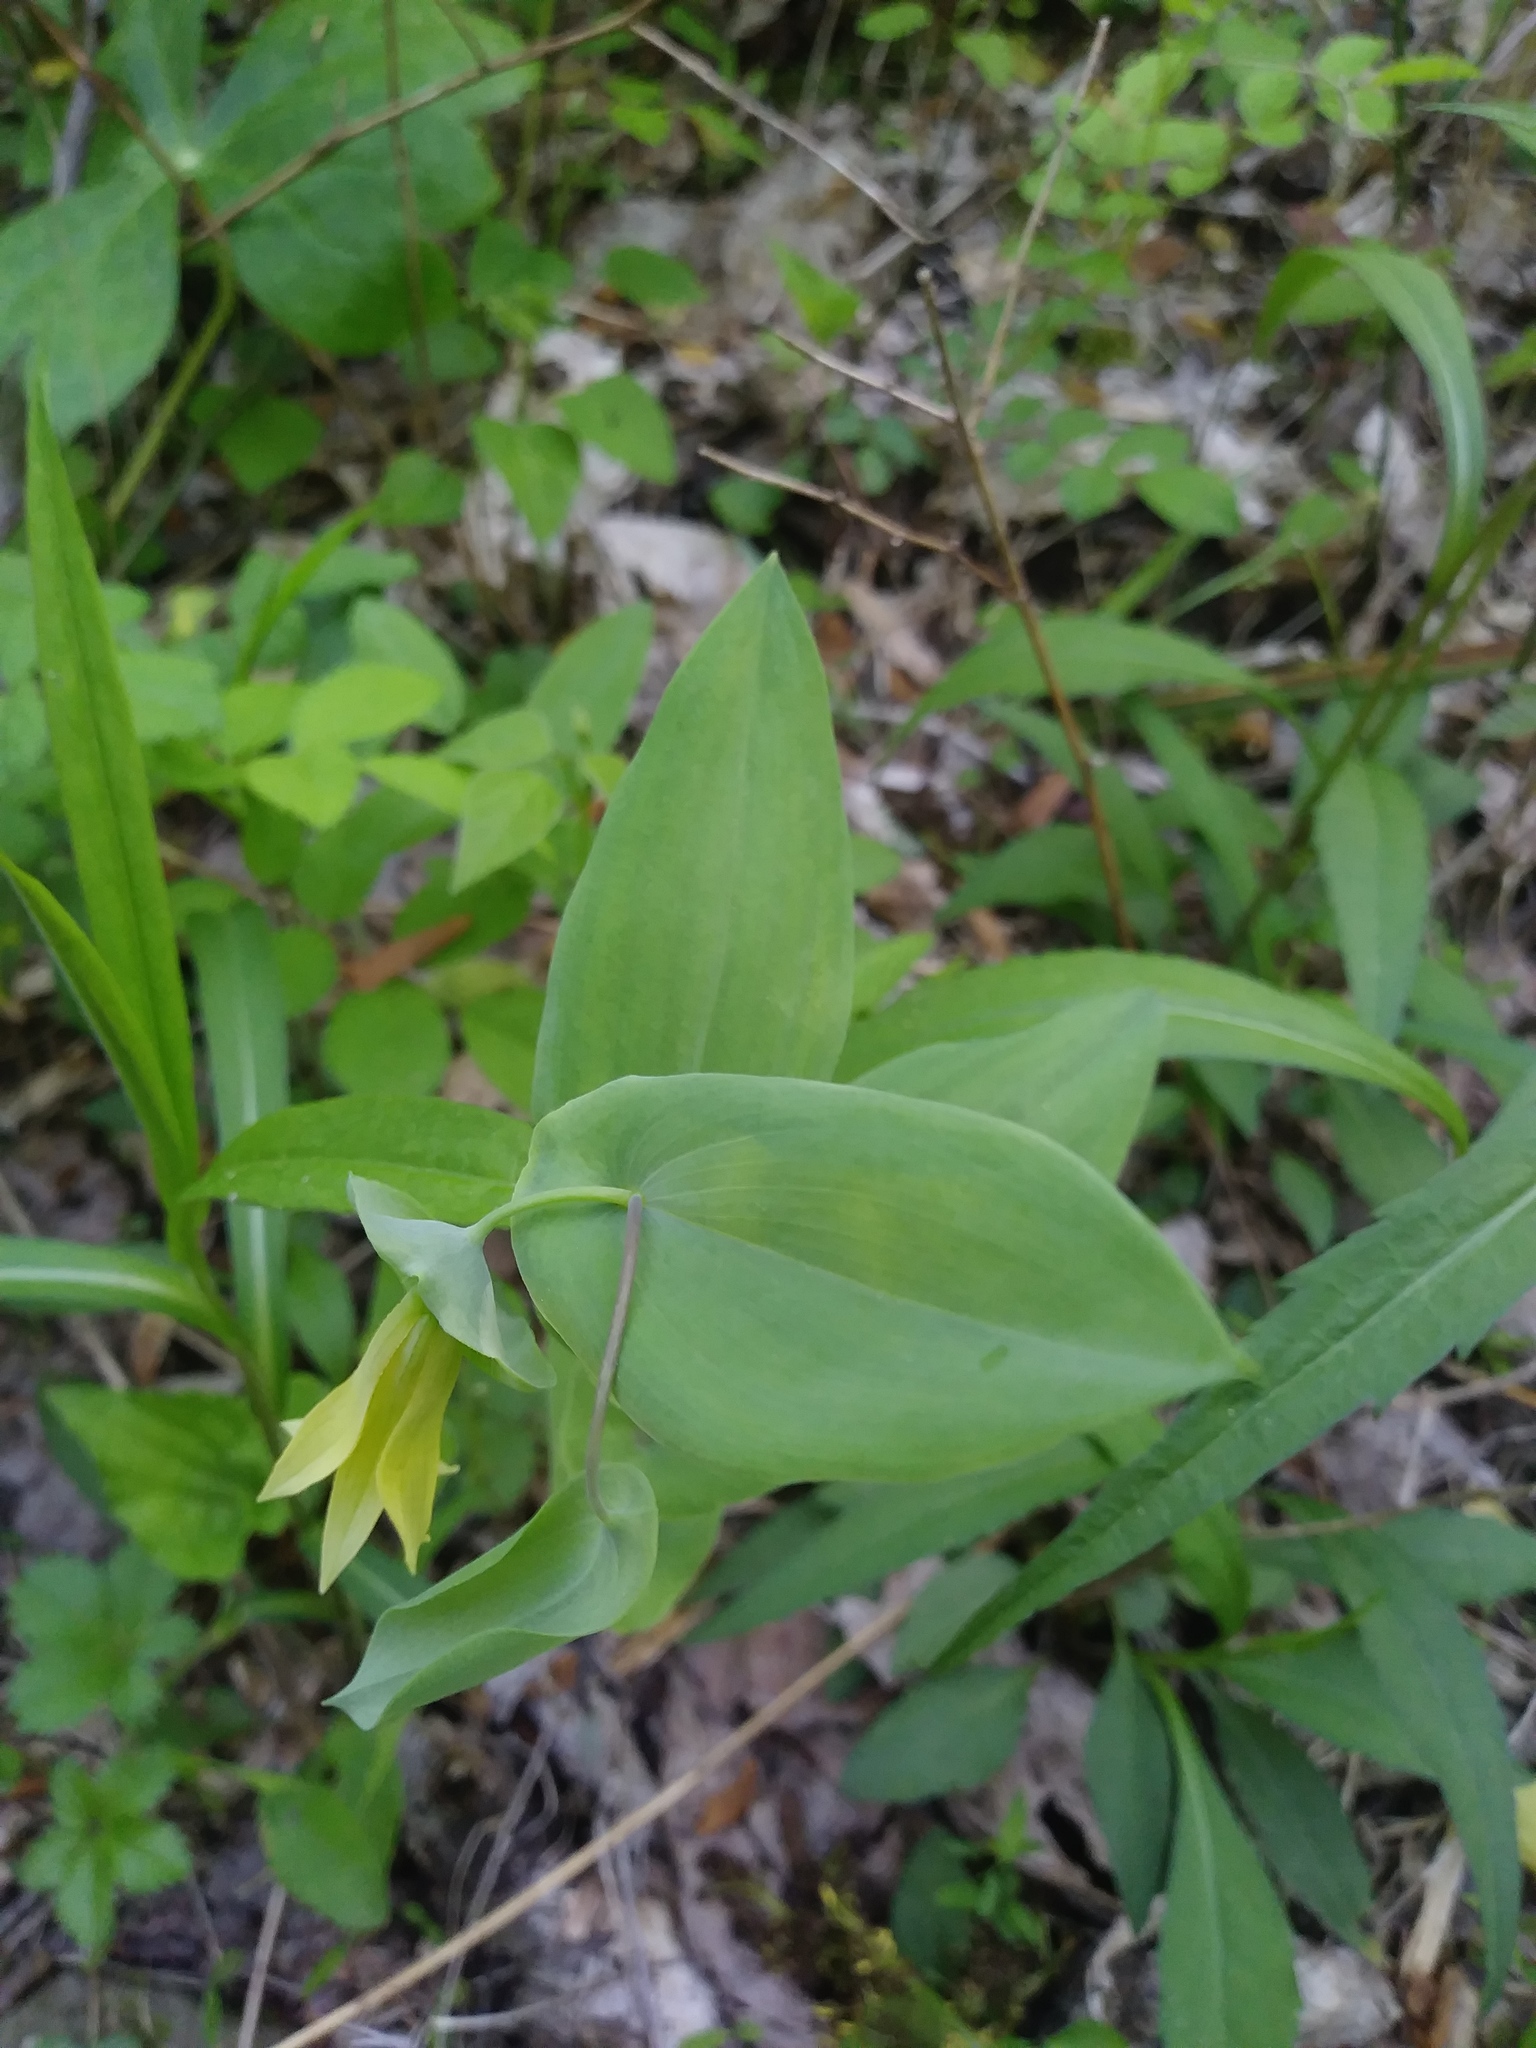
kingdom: Plantae
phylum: Tracheophyta
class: Liliopsida
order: Liliales
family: Colchicaceae
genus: Uvularia
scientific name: Uvularia perfoliata
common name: Perfoliate bellwort
